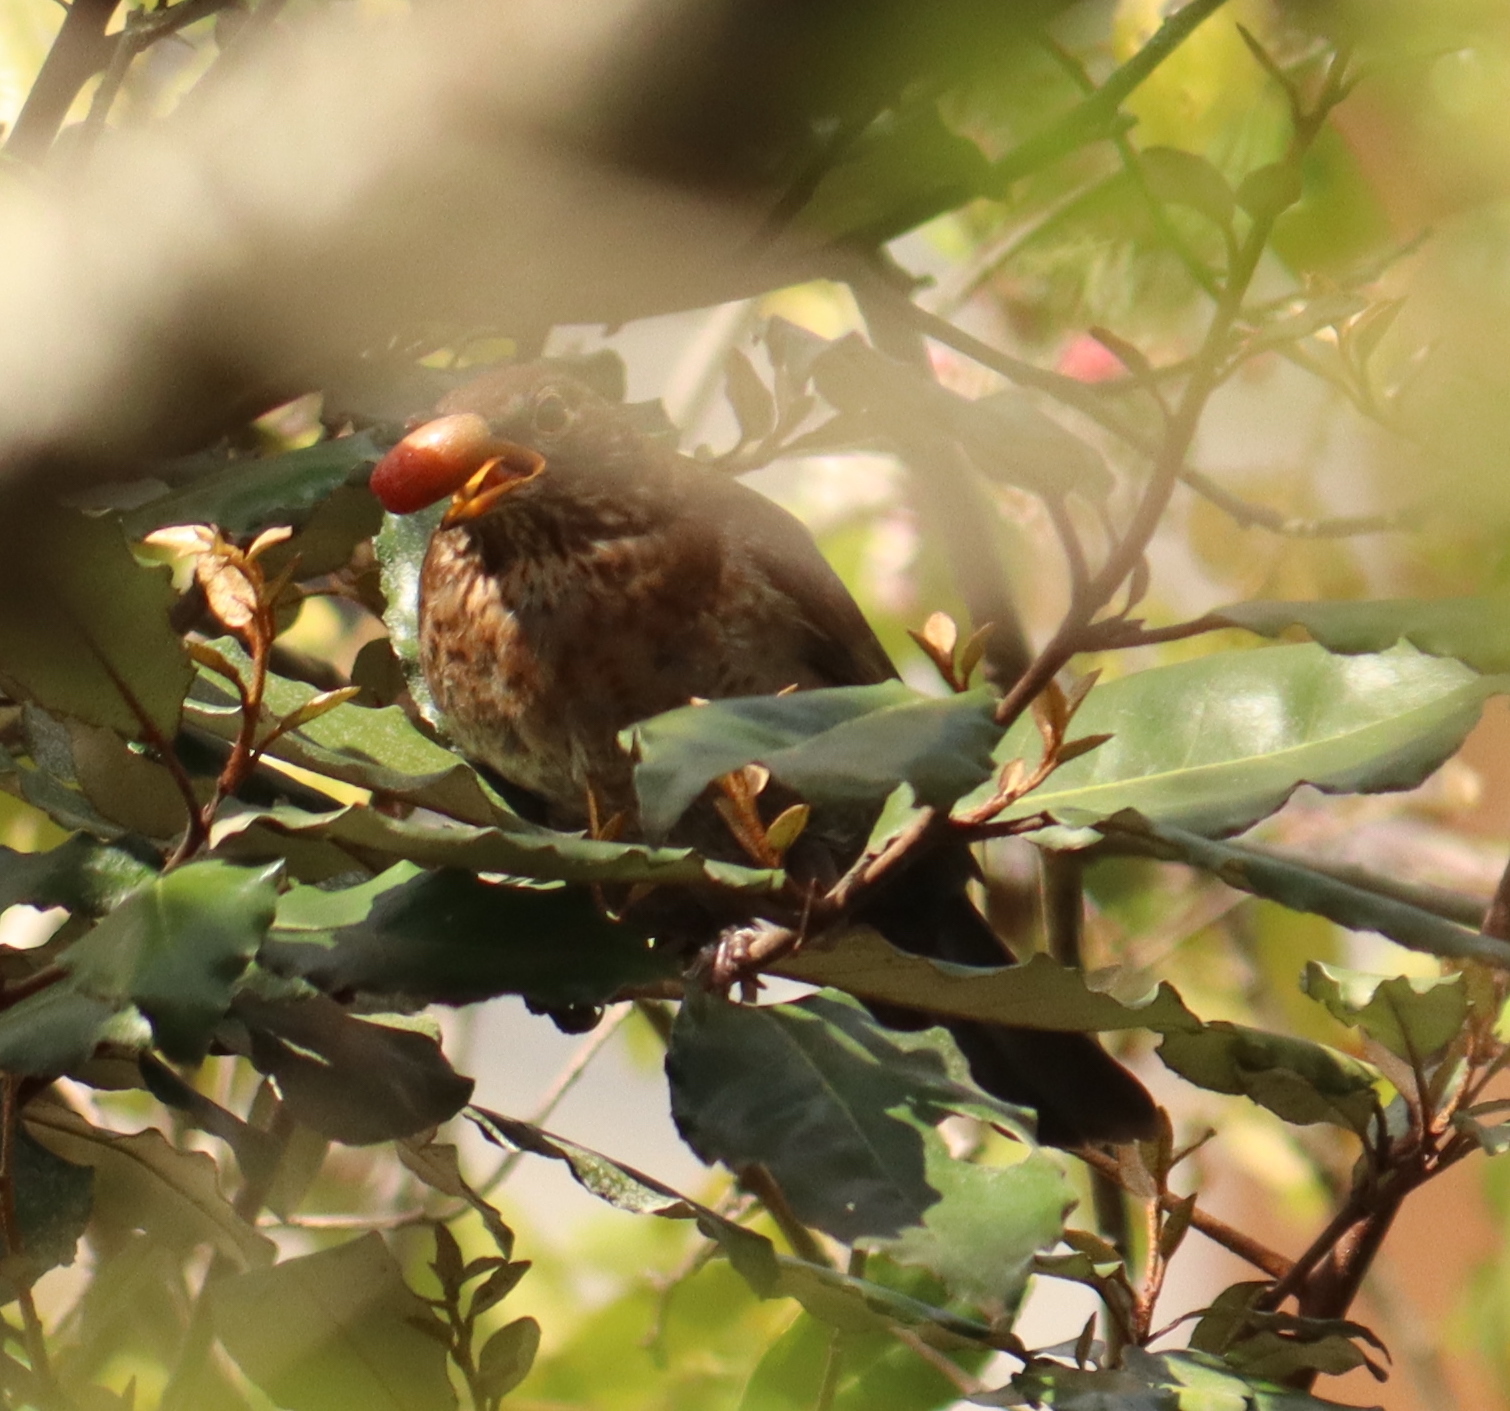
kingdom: Animalia
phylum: Chordata
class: Aves
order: Passeriformes
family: Turdidae
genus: Turdus
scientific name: Turdus merula
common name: Common blackbird
